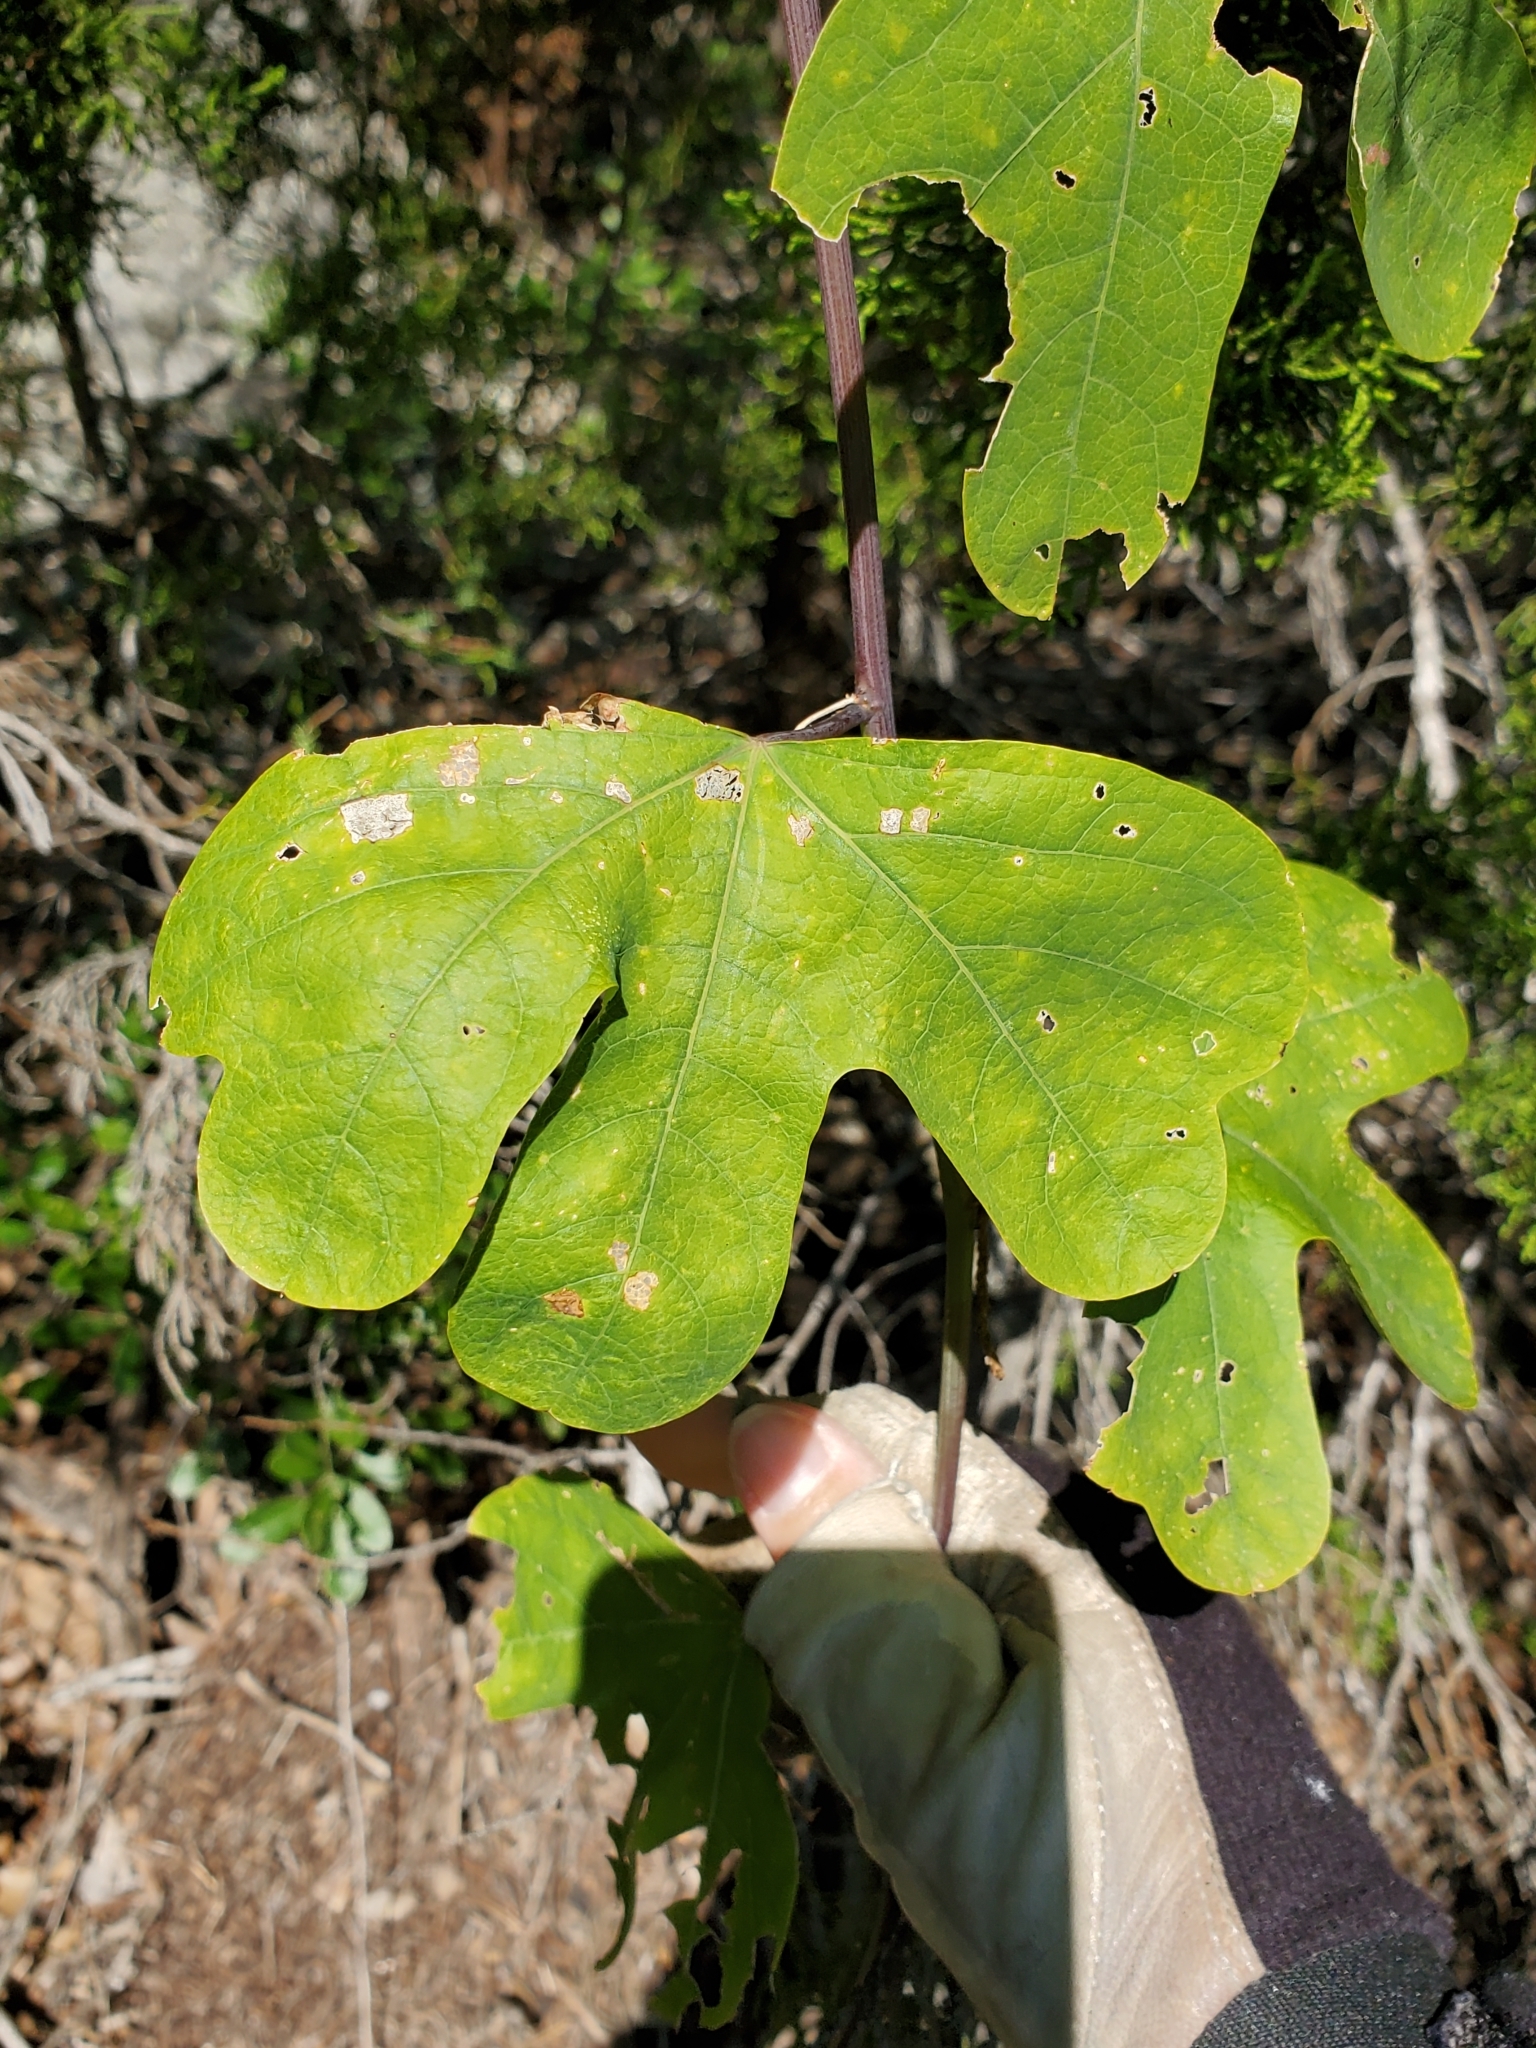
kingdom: Plantae
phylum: Tracheophyta
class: Magnoliopsida
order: Malpighiales
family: Passifloraceae
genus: Passiflora
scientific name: Passiflora affinis
